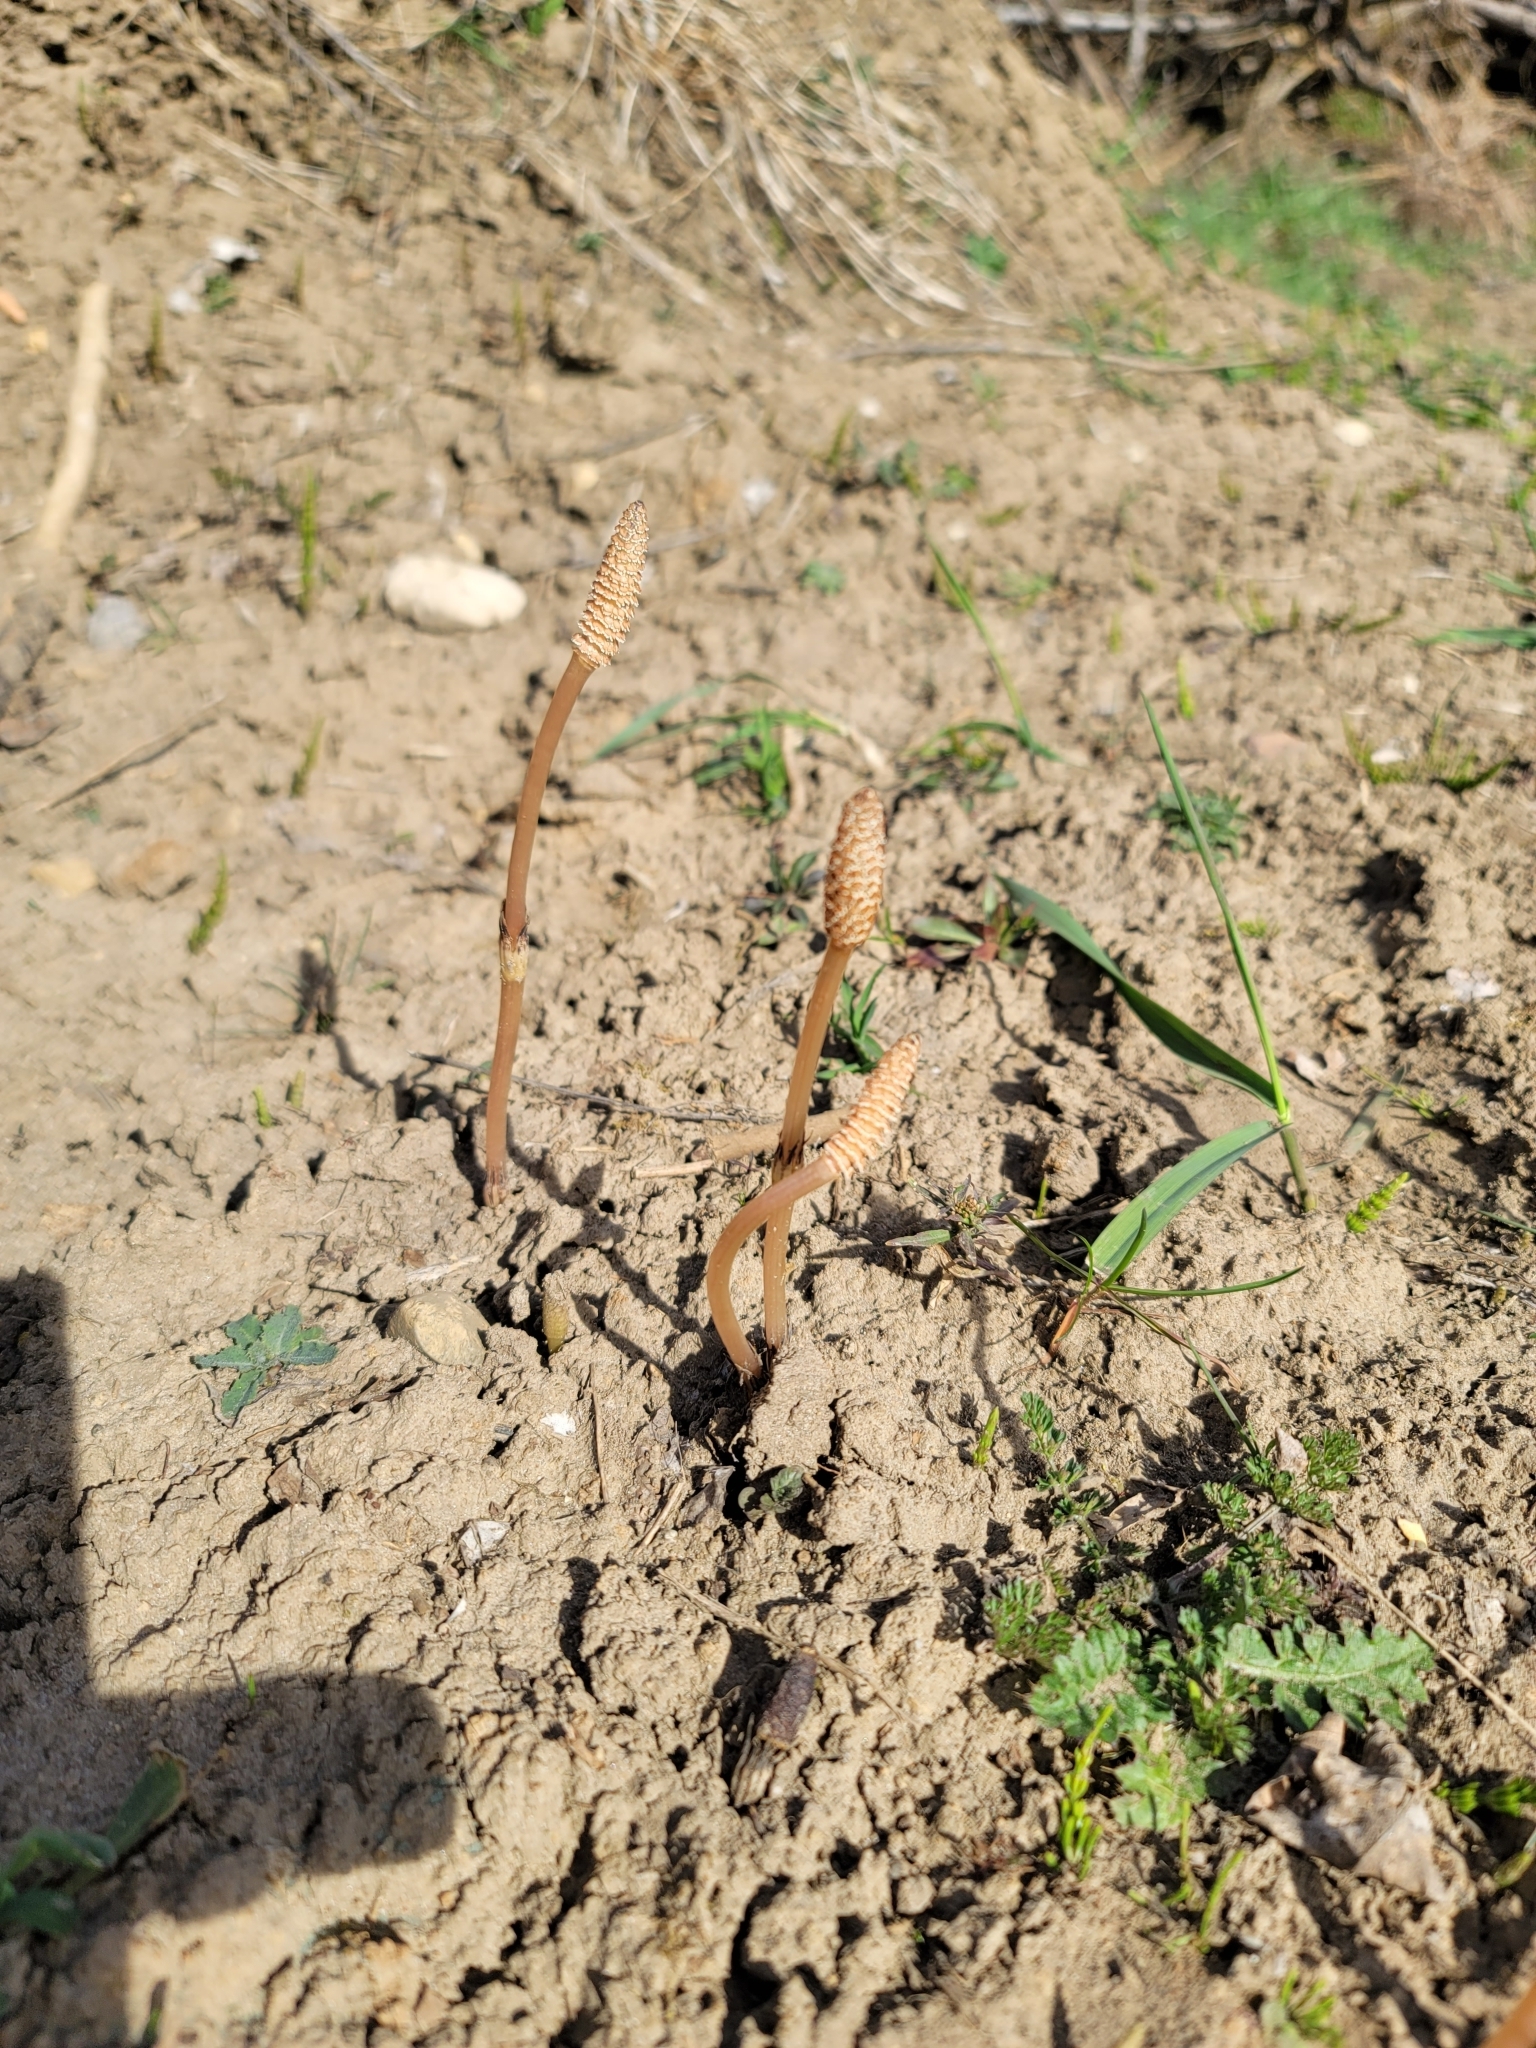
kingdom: Plantae
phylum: Tracheophyta
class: Polypodiopsida
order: Equisetales
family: Equisetaceae
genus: Equisetum
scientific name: Equisetum arvense
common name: Field horsetail
